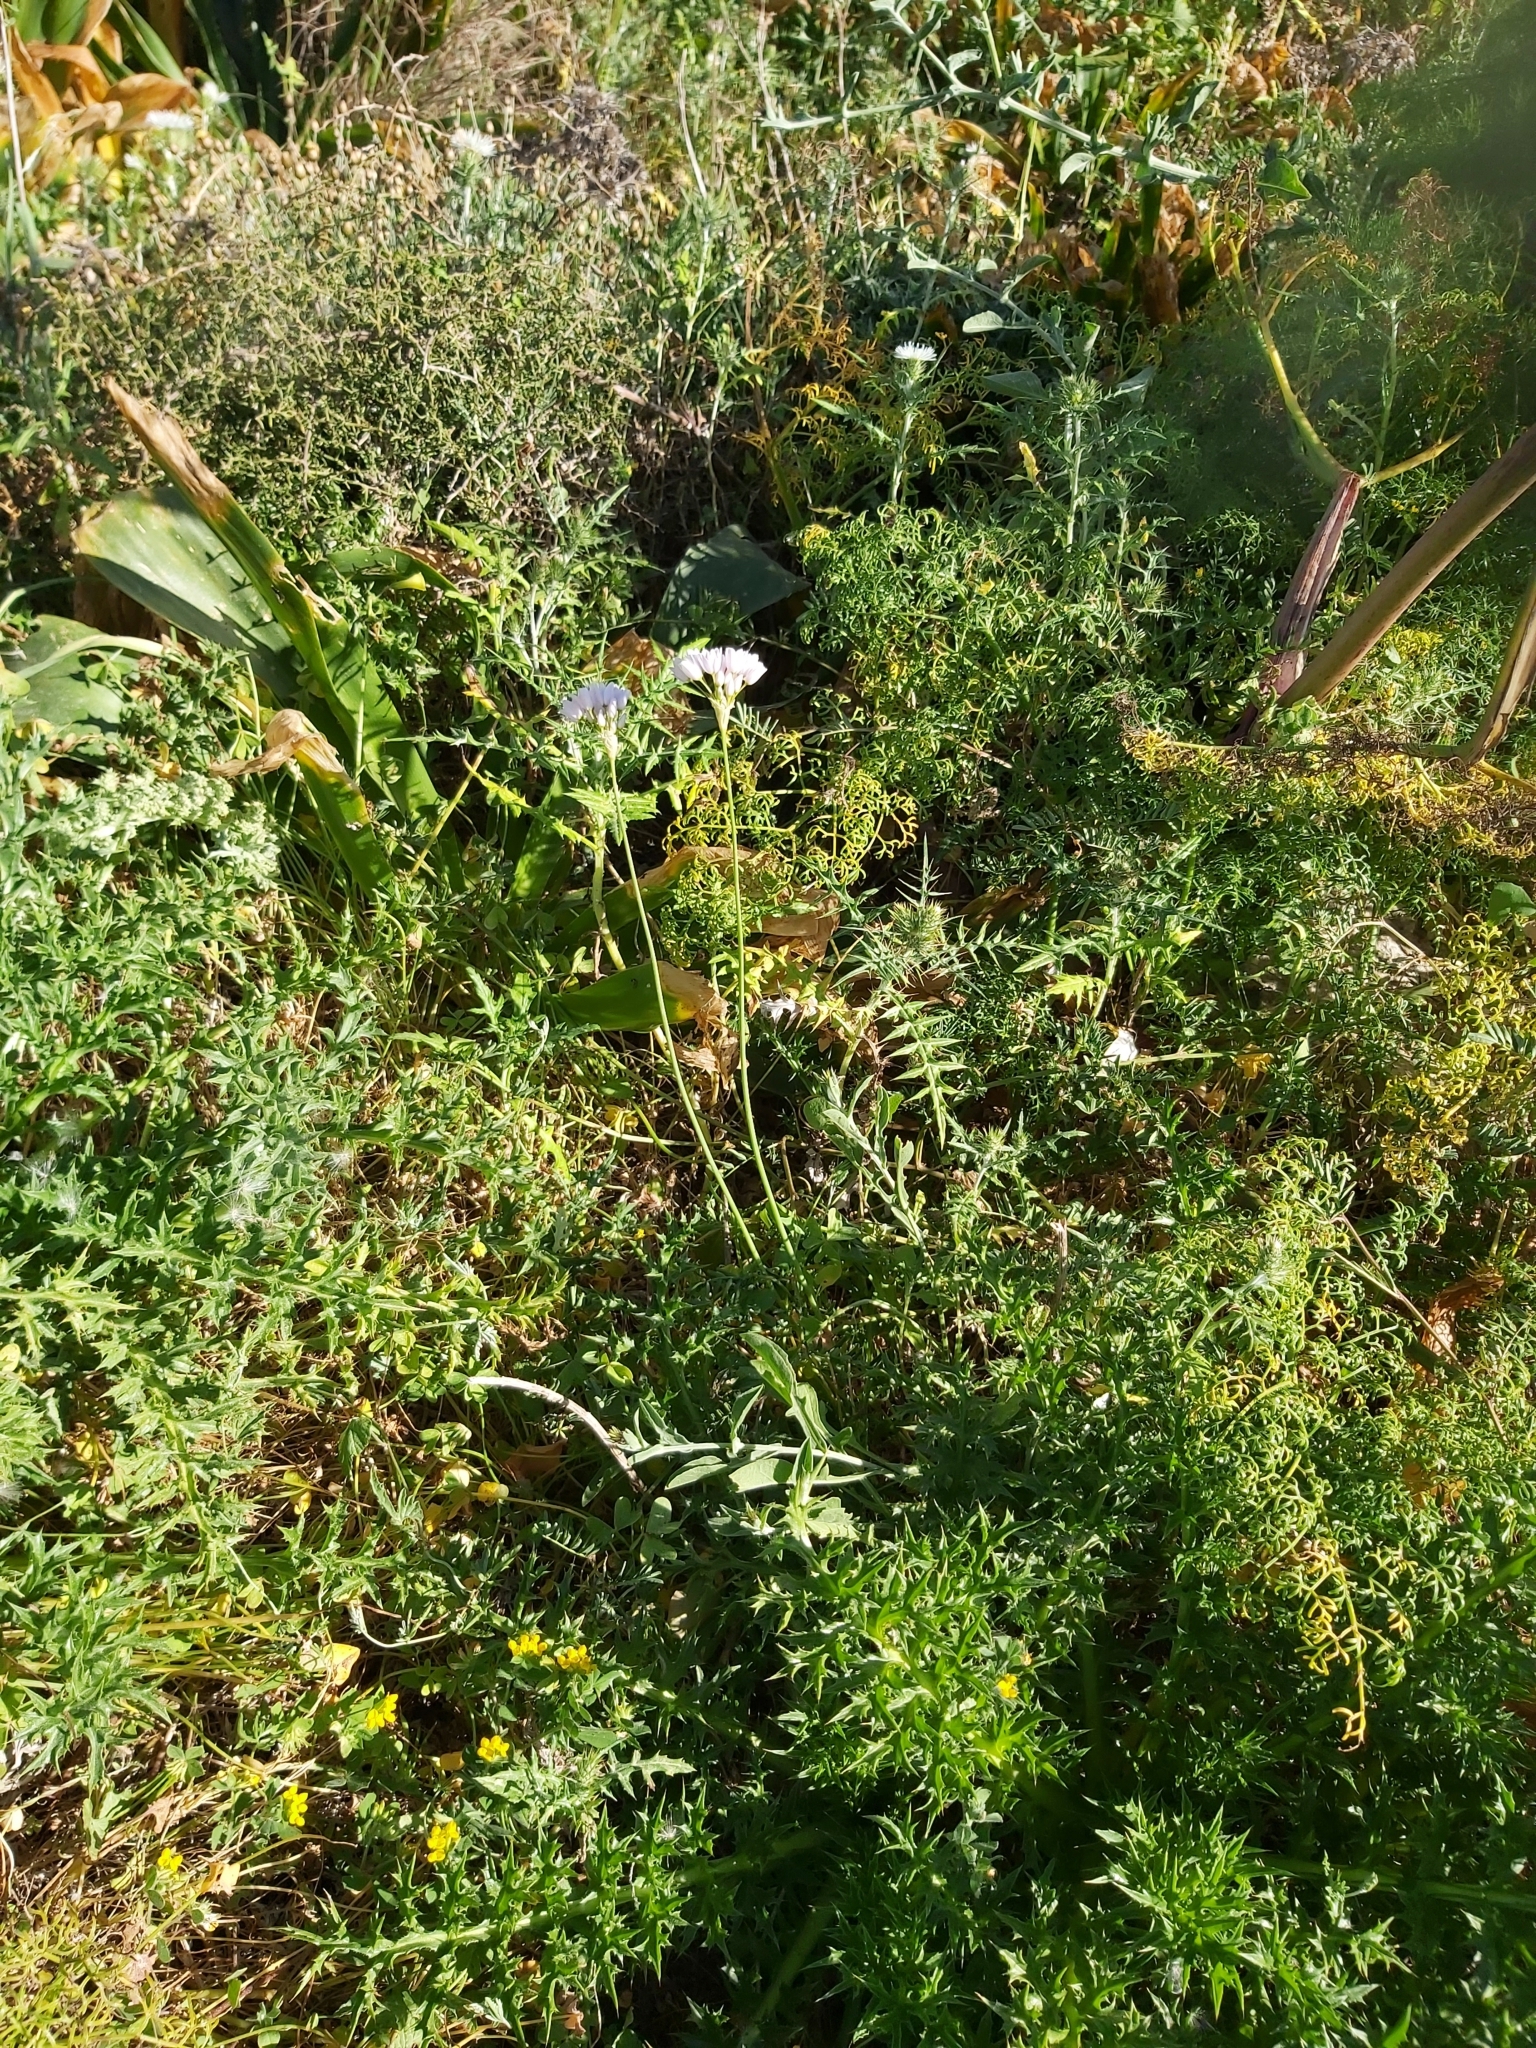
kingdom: Plantae
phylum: Tracheophyta
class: Liliopsida
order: Asparagales
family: Amaryllidaceae
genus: Allium
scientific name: Allium roseum
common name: Rosy garlic
